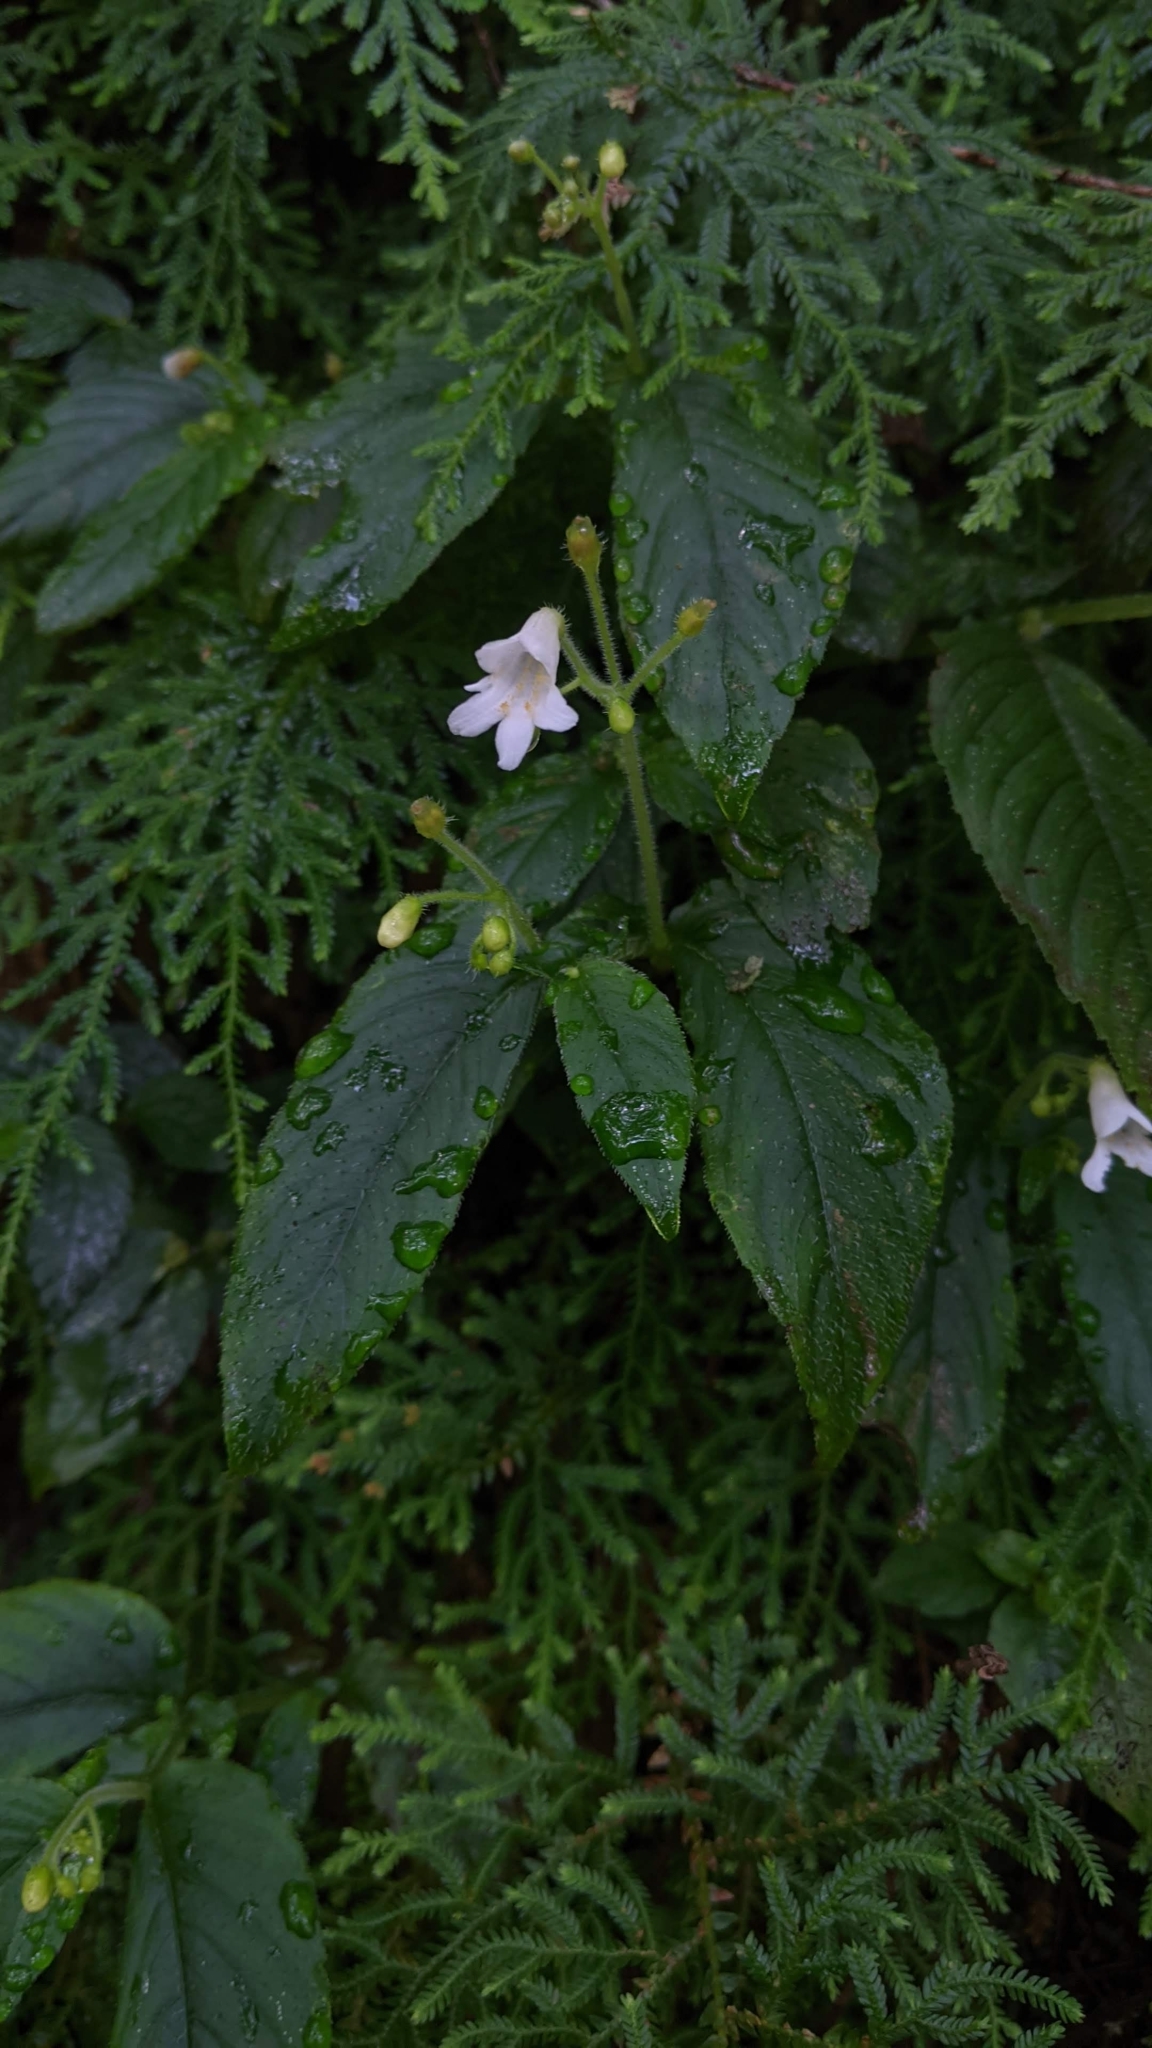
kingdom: Plantae
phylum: Tracheophyta
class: Magnoliopsida
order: Lamiales
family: Gesneriaceae
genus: Whytockia
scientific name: Whytockia sasakii
